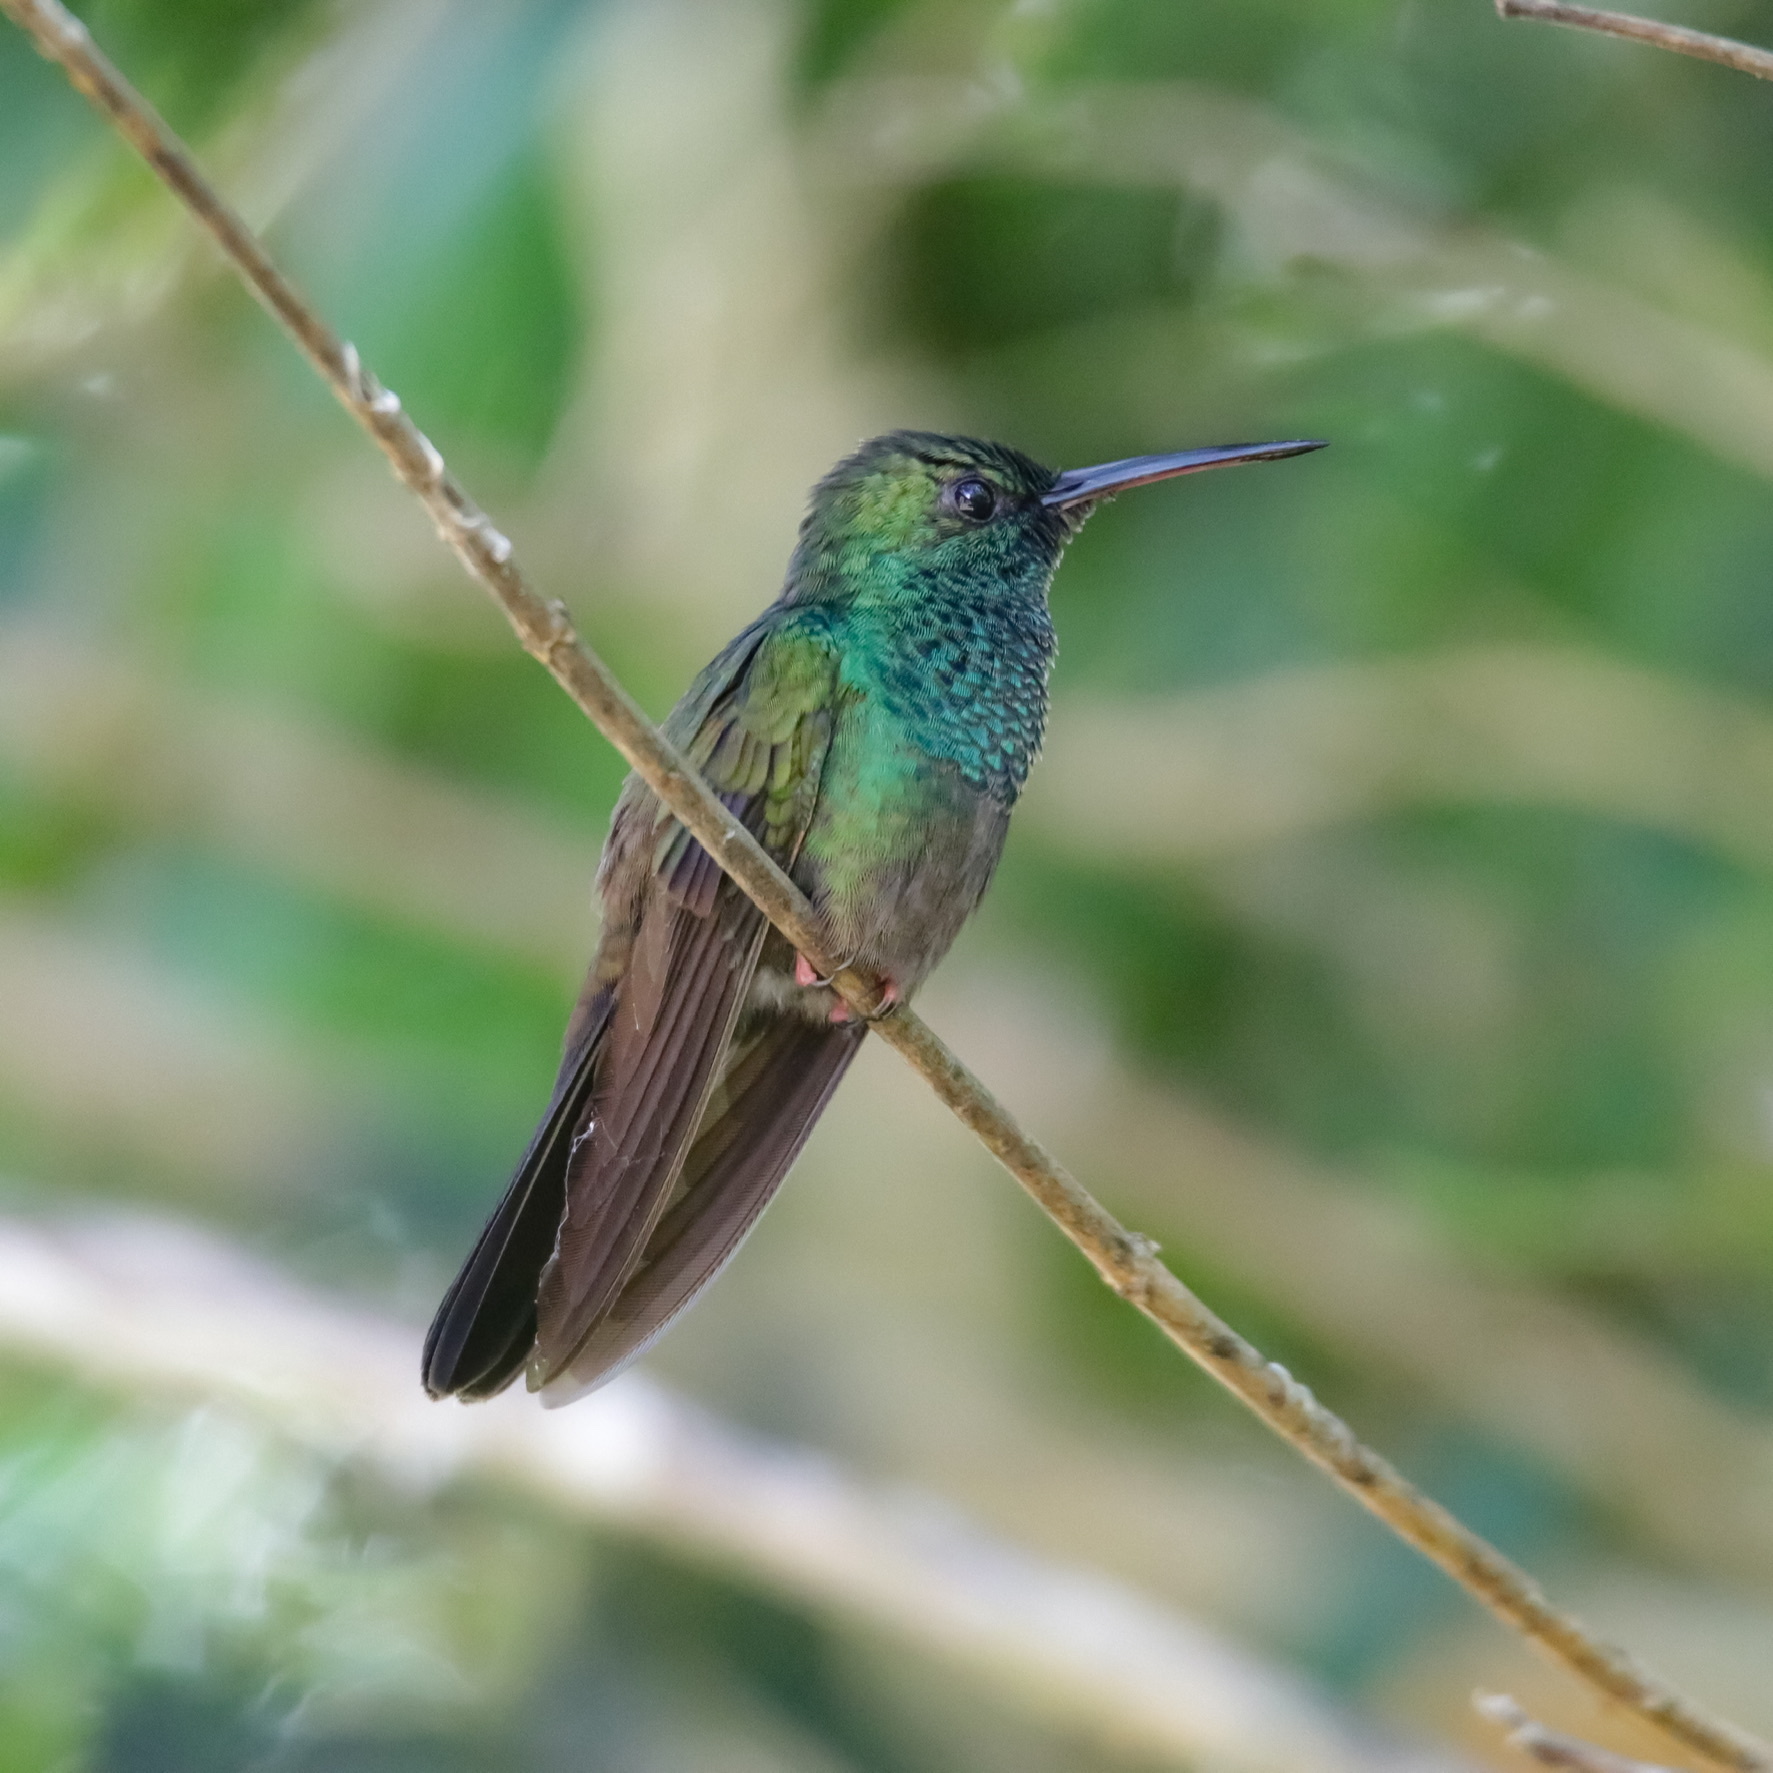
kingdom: Animalia
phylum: Chordata
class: Aves
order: Apodiformes
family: Trochilidae
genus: Chalybura
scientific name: Chalybura urochrysia
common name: Bronze-tailed plumeleteer
